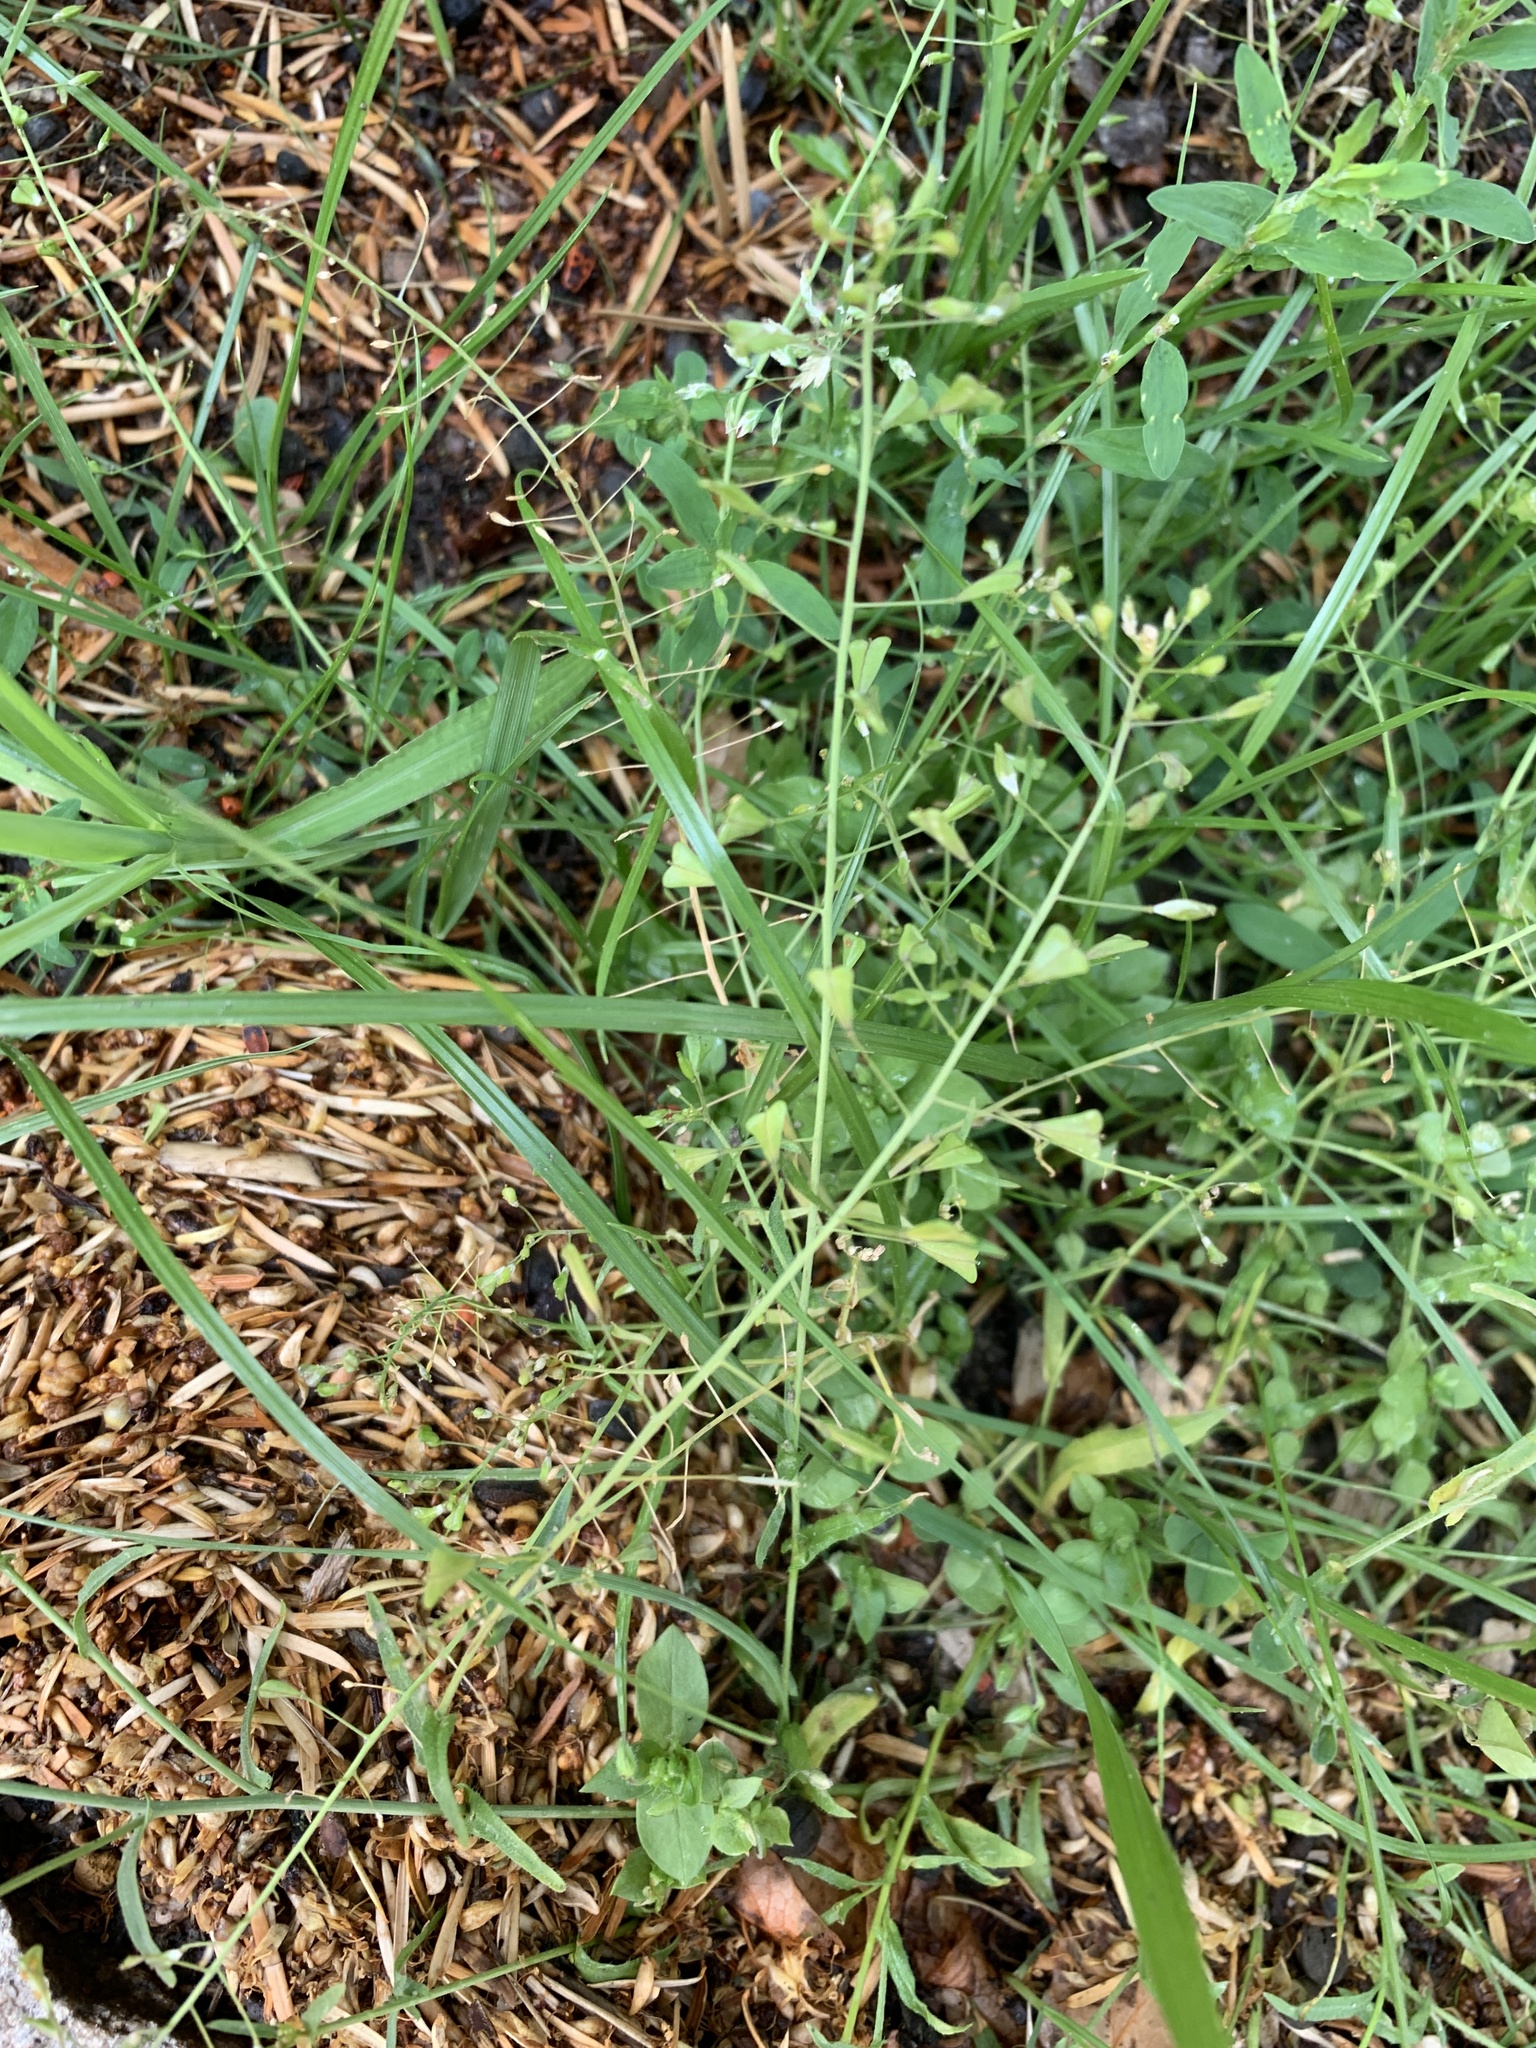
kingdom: Plantae
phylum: Tracheophyta
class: Magnoliopsida
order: Brassicales
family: Brassicaceae
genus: Capsella
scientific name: Capsella bursa-pastoris
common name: Shepherd's purse
